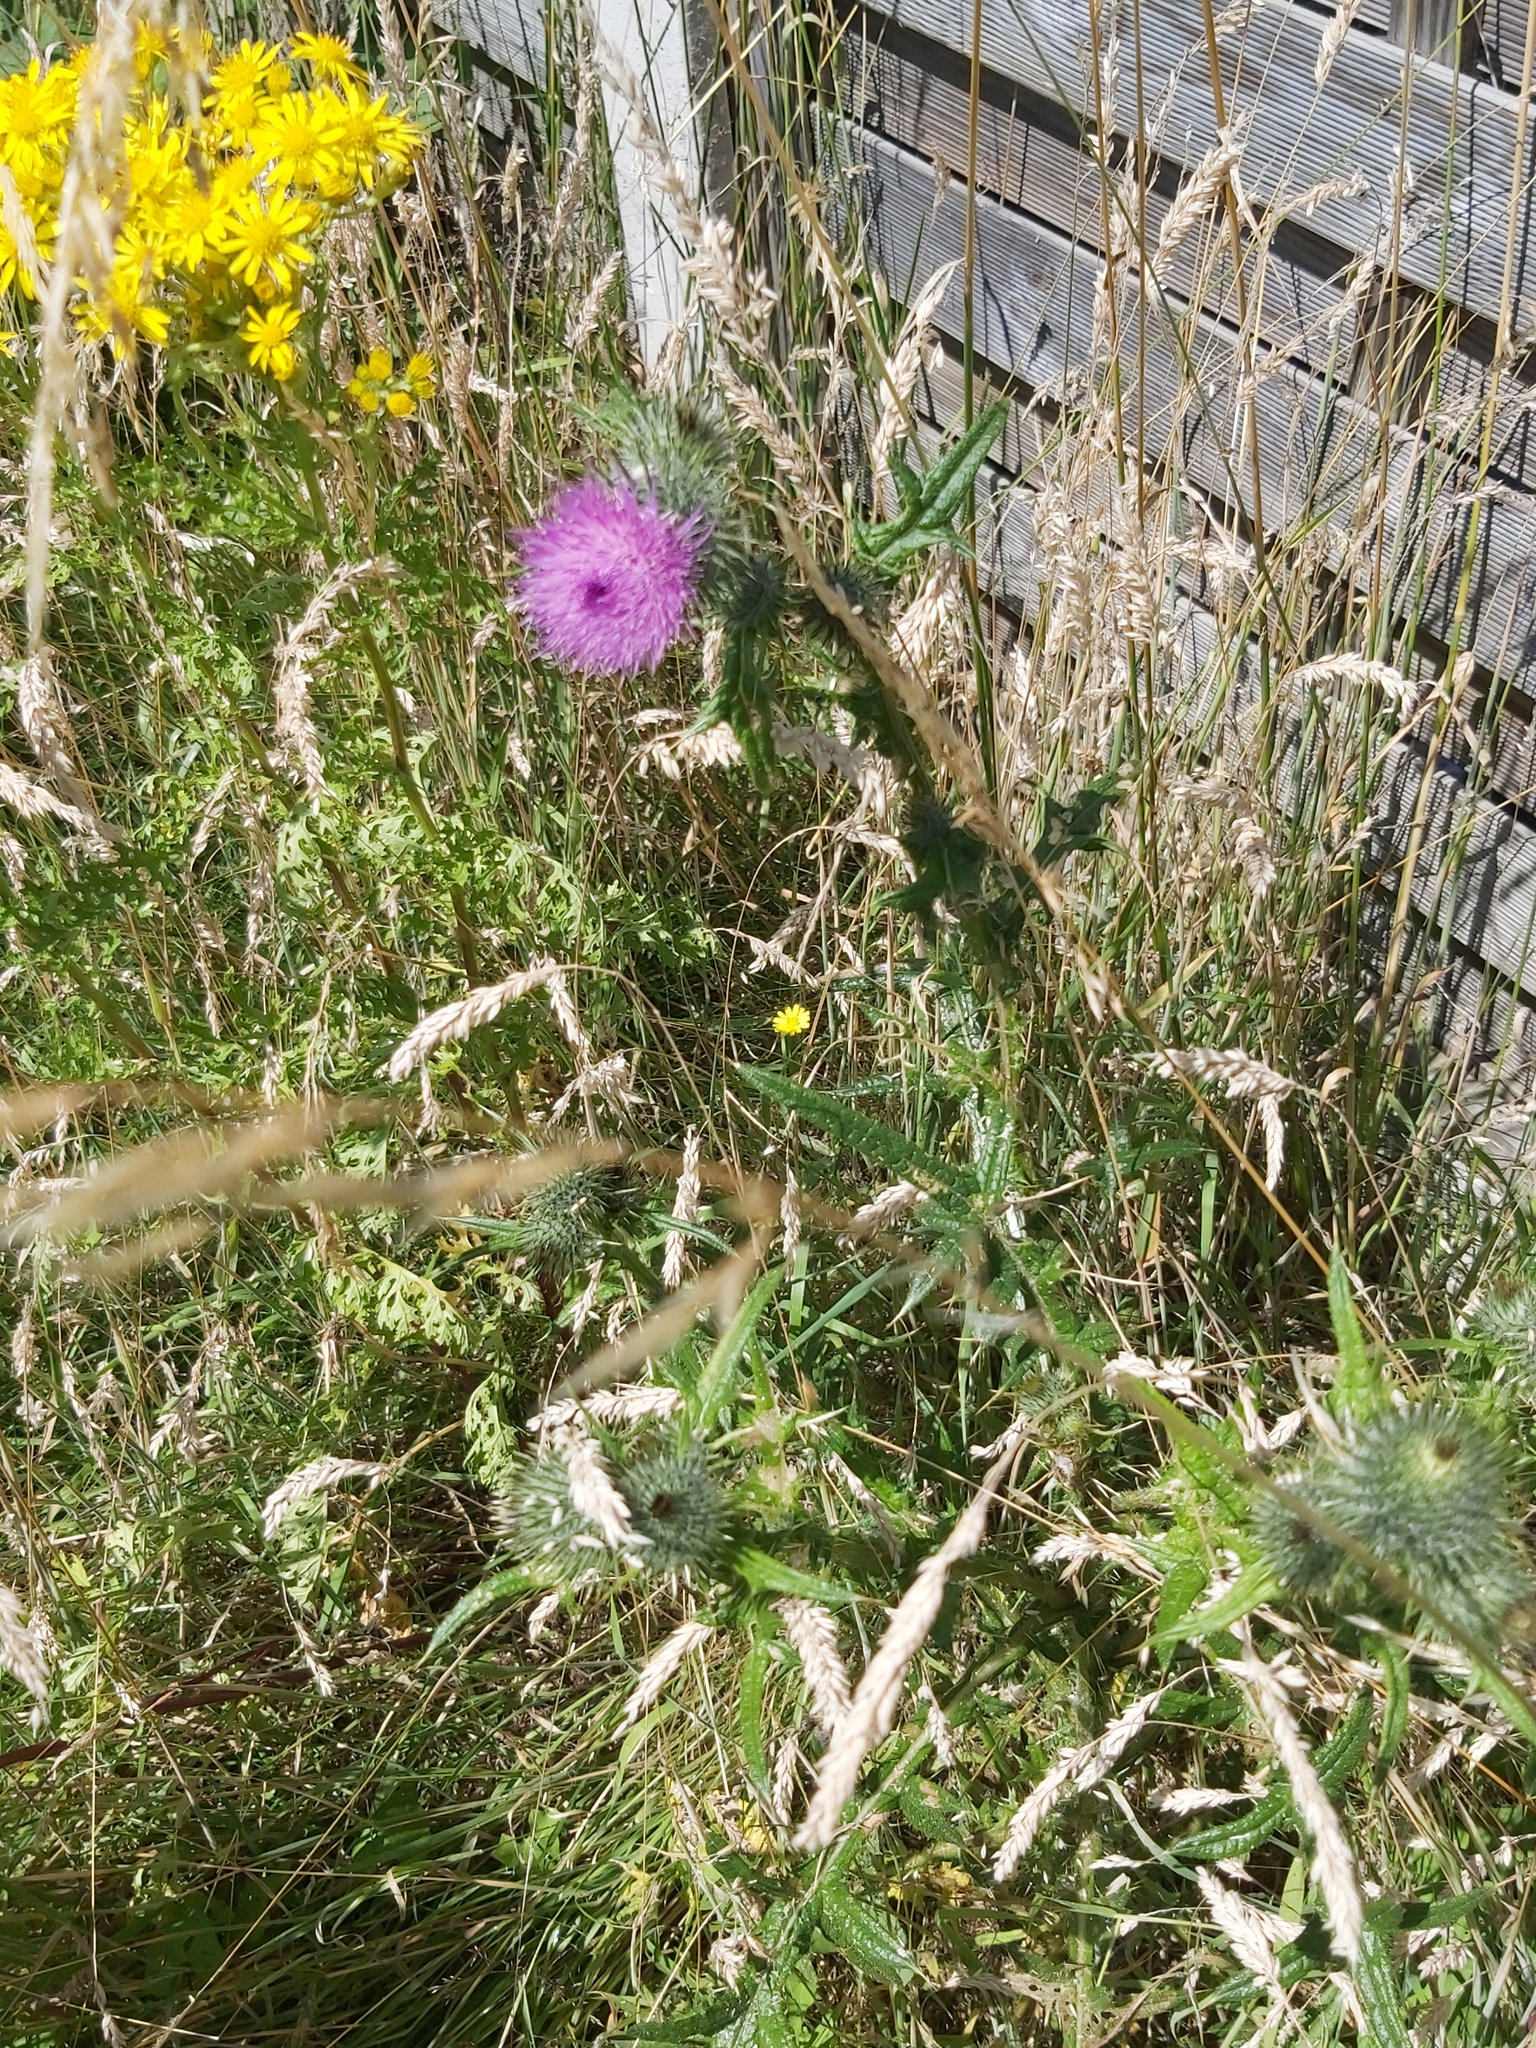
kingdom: Plantae
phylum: Tracheophyta
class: Magnoliopsida
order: Asterales
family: Asteraceae
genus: Cirsium
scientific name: Cirsium vulgare
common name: Bull thistle
